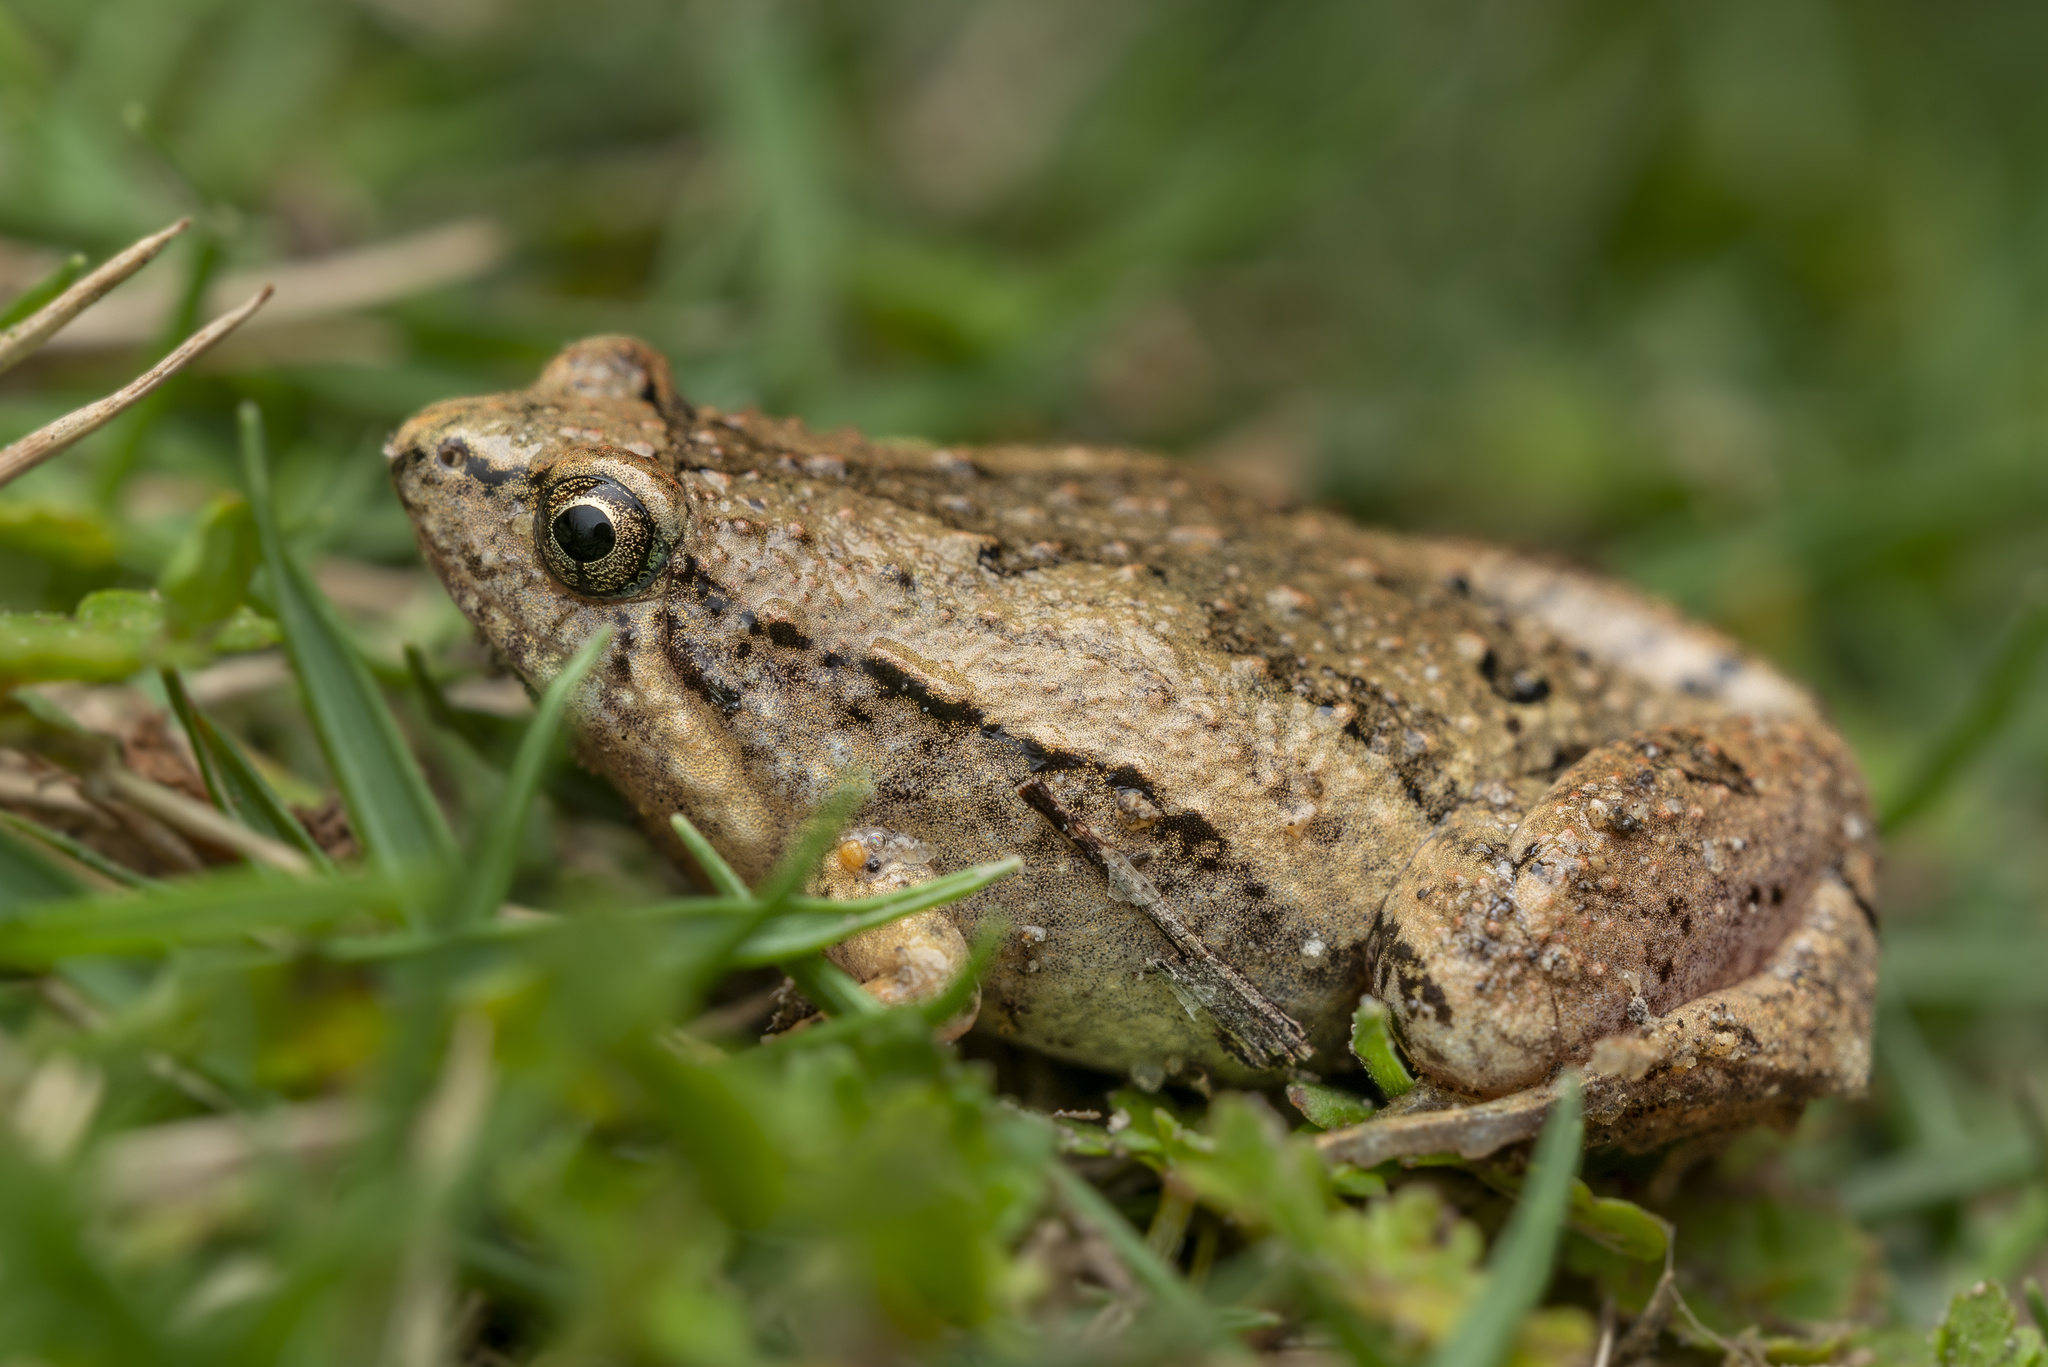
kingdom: Animalia
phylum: Chordata
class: Amphibia
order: Anura
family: Microhylidae
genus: Microhyla
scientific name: Microhyla fissipes
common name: Ornate narrow-mouthed frog
